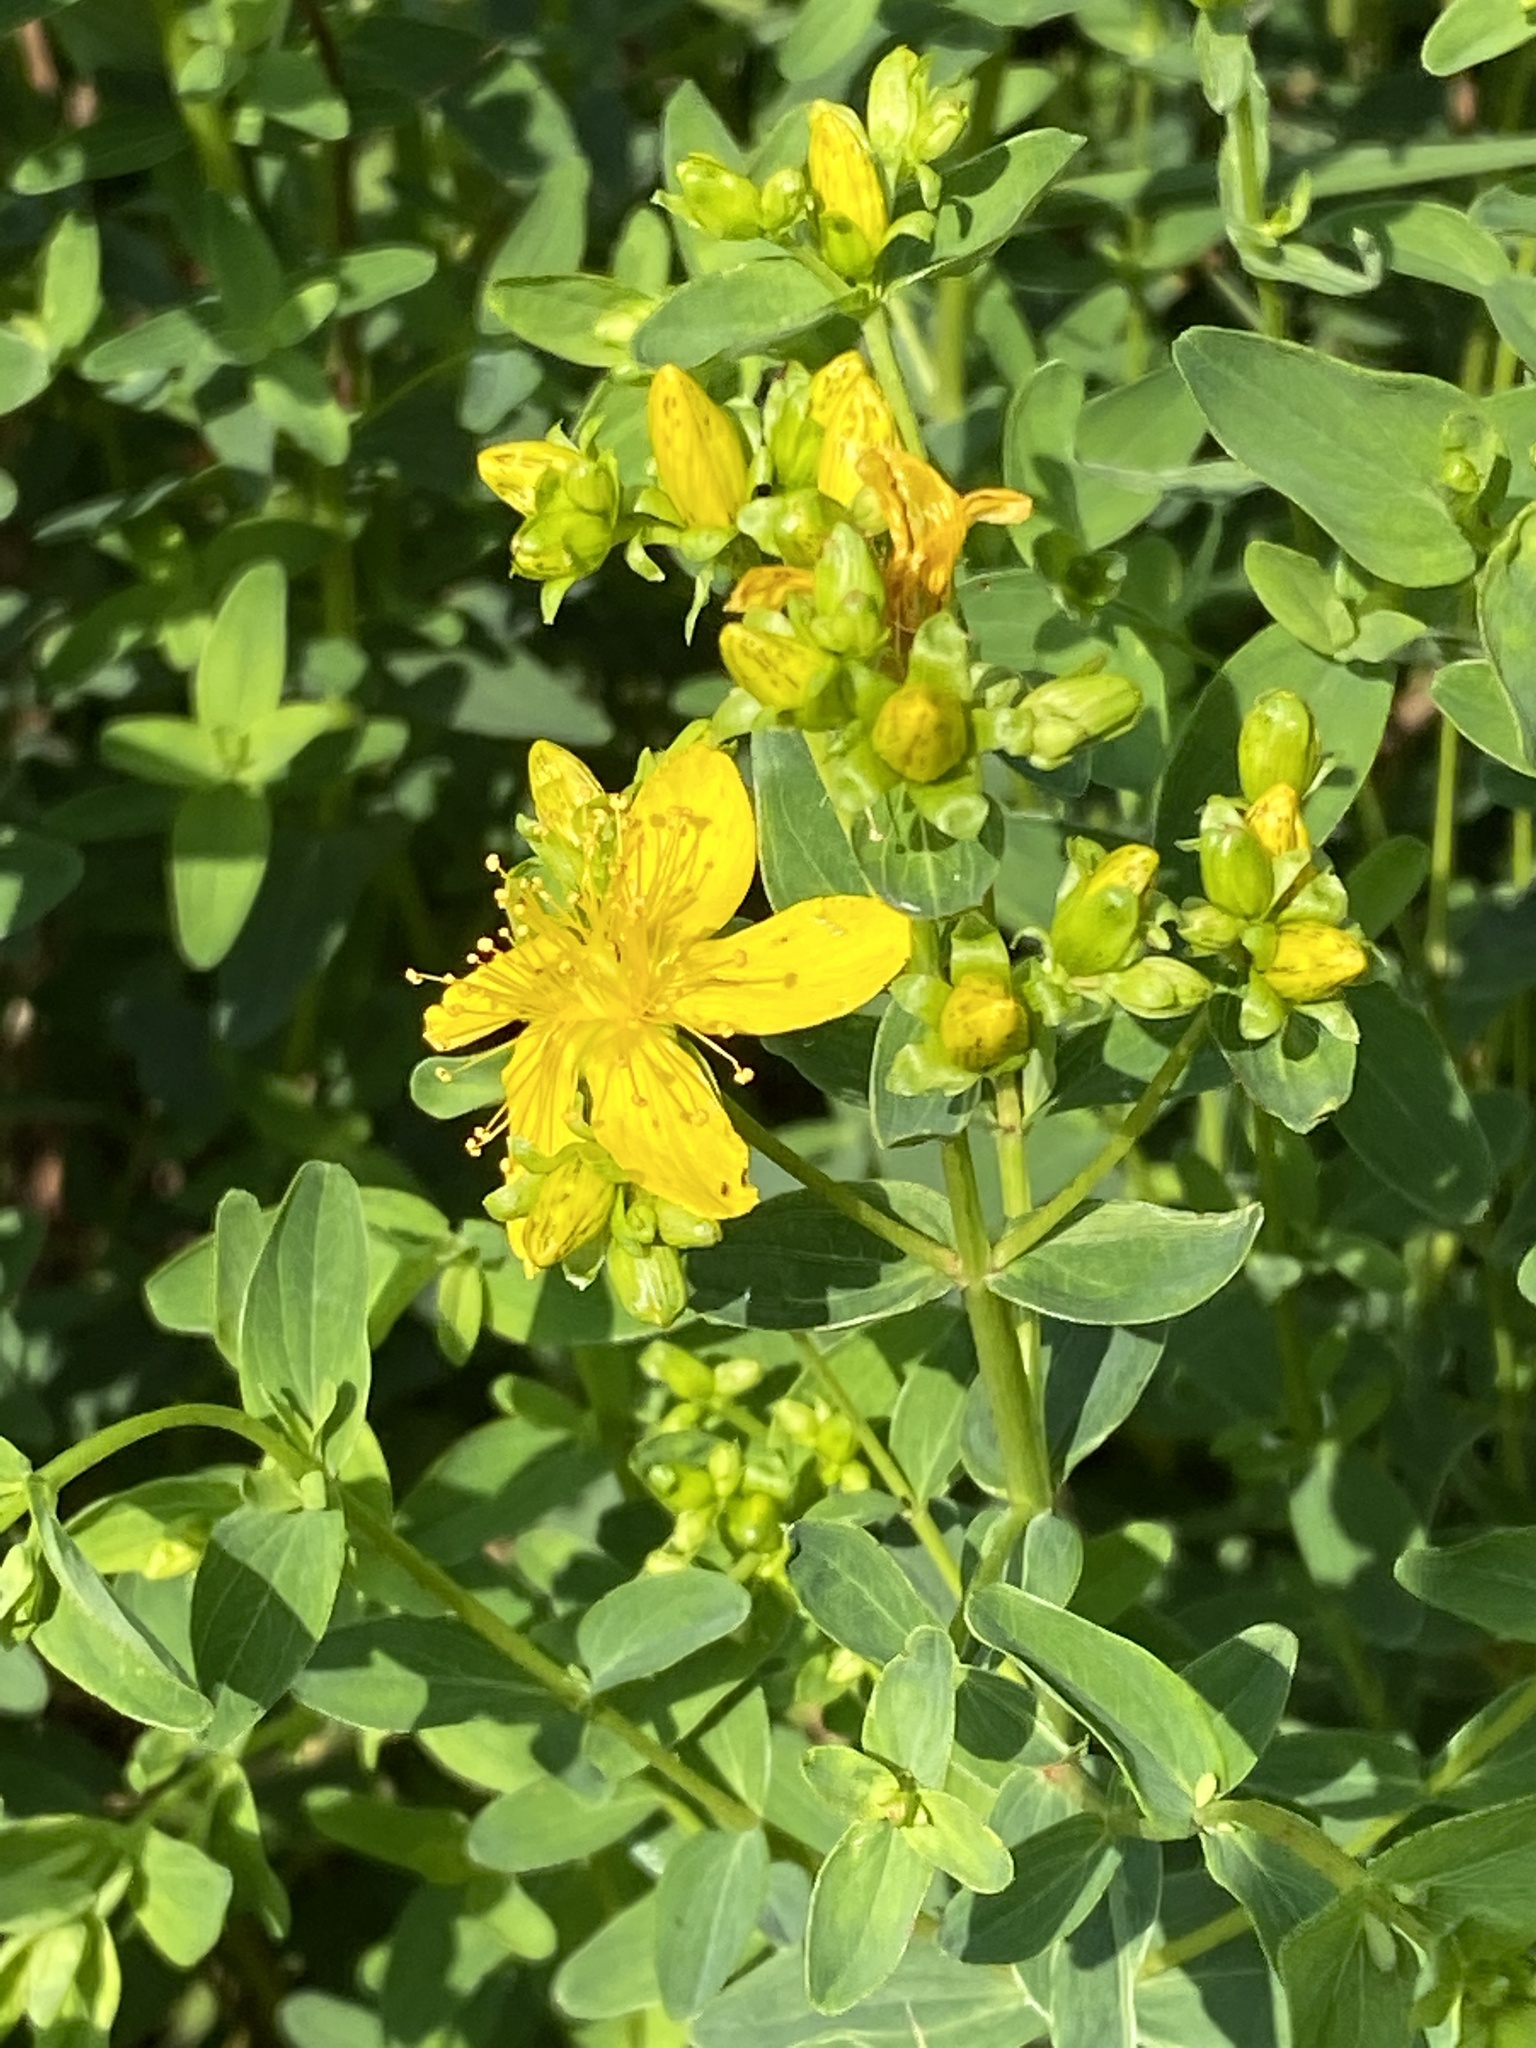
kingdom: Plantae
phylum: Tracheophyta
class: Magnoliopsida
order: Malpighiales
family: Hypericaceae
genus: Hypericum
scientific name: Hypericum maculatum
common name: Imperforate st. john's-wort
